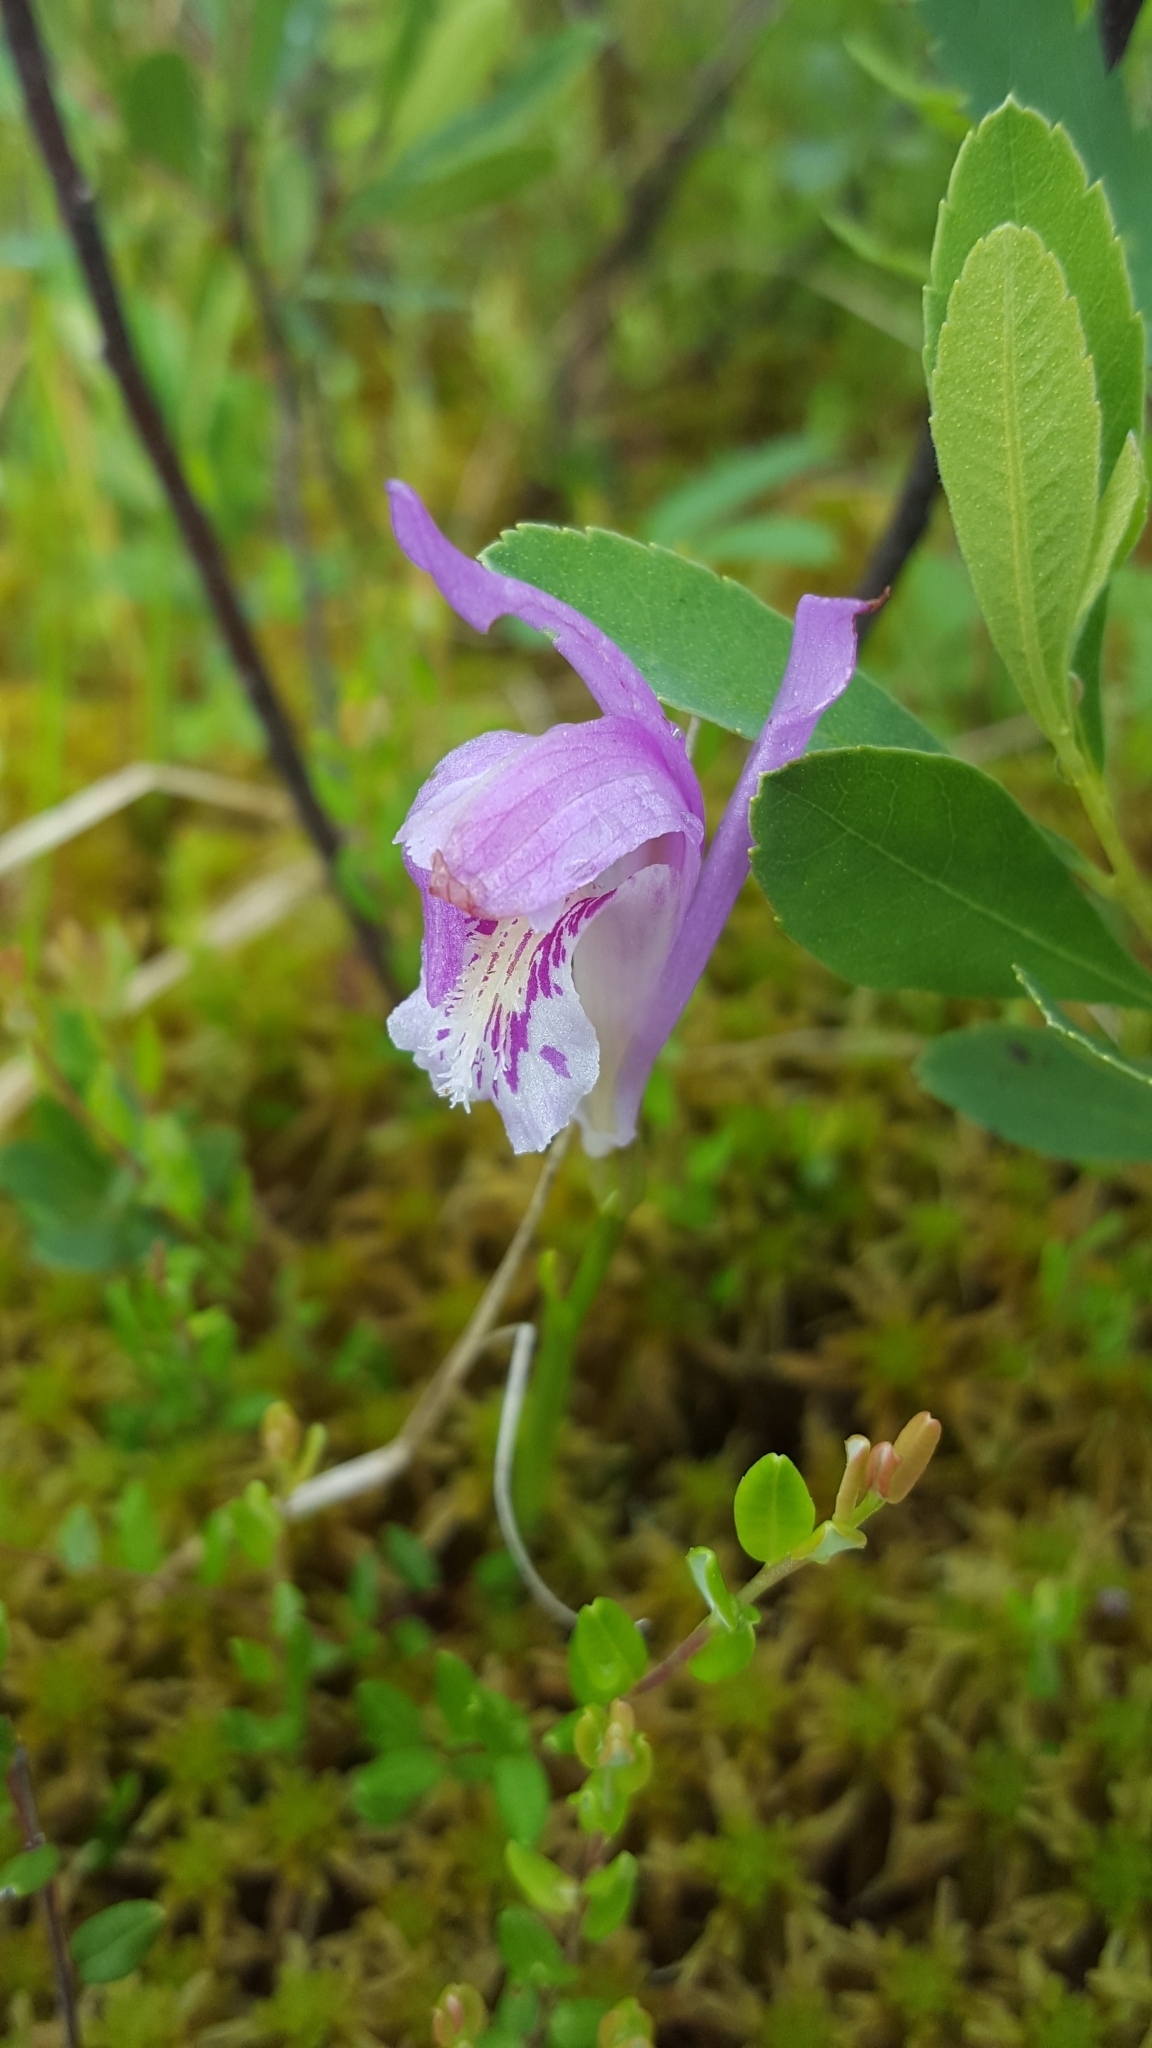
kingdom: Plantae
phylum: Tracheophyta
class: Liliopsida
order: Asparagales
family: Orchidaceae
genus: Arethusa
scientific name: Arethusa bulbosa
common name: Arethusa
